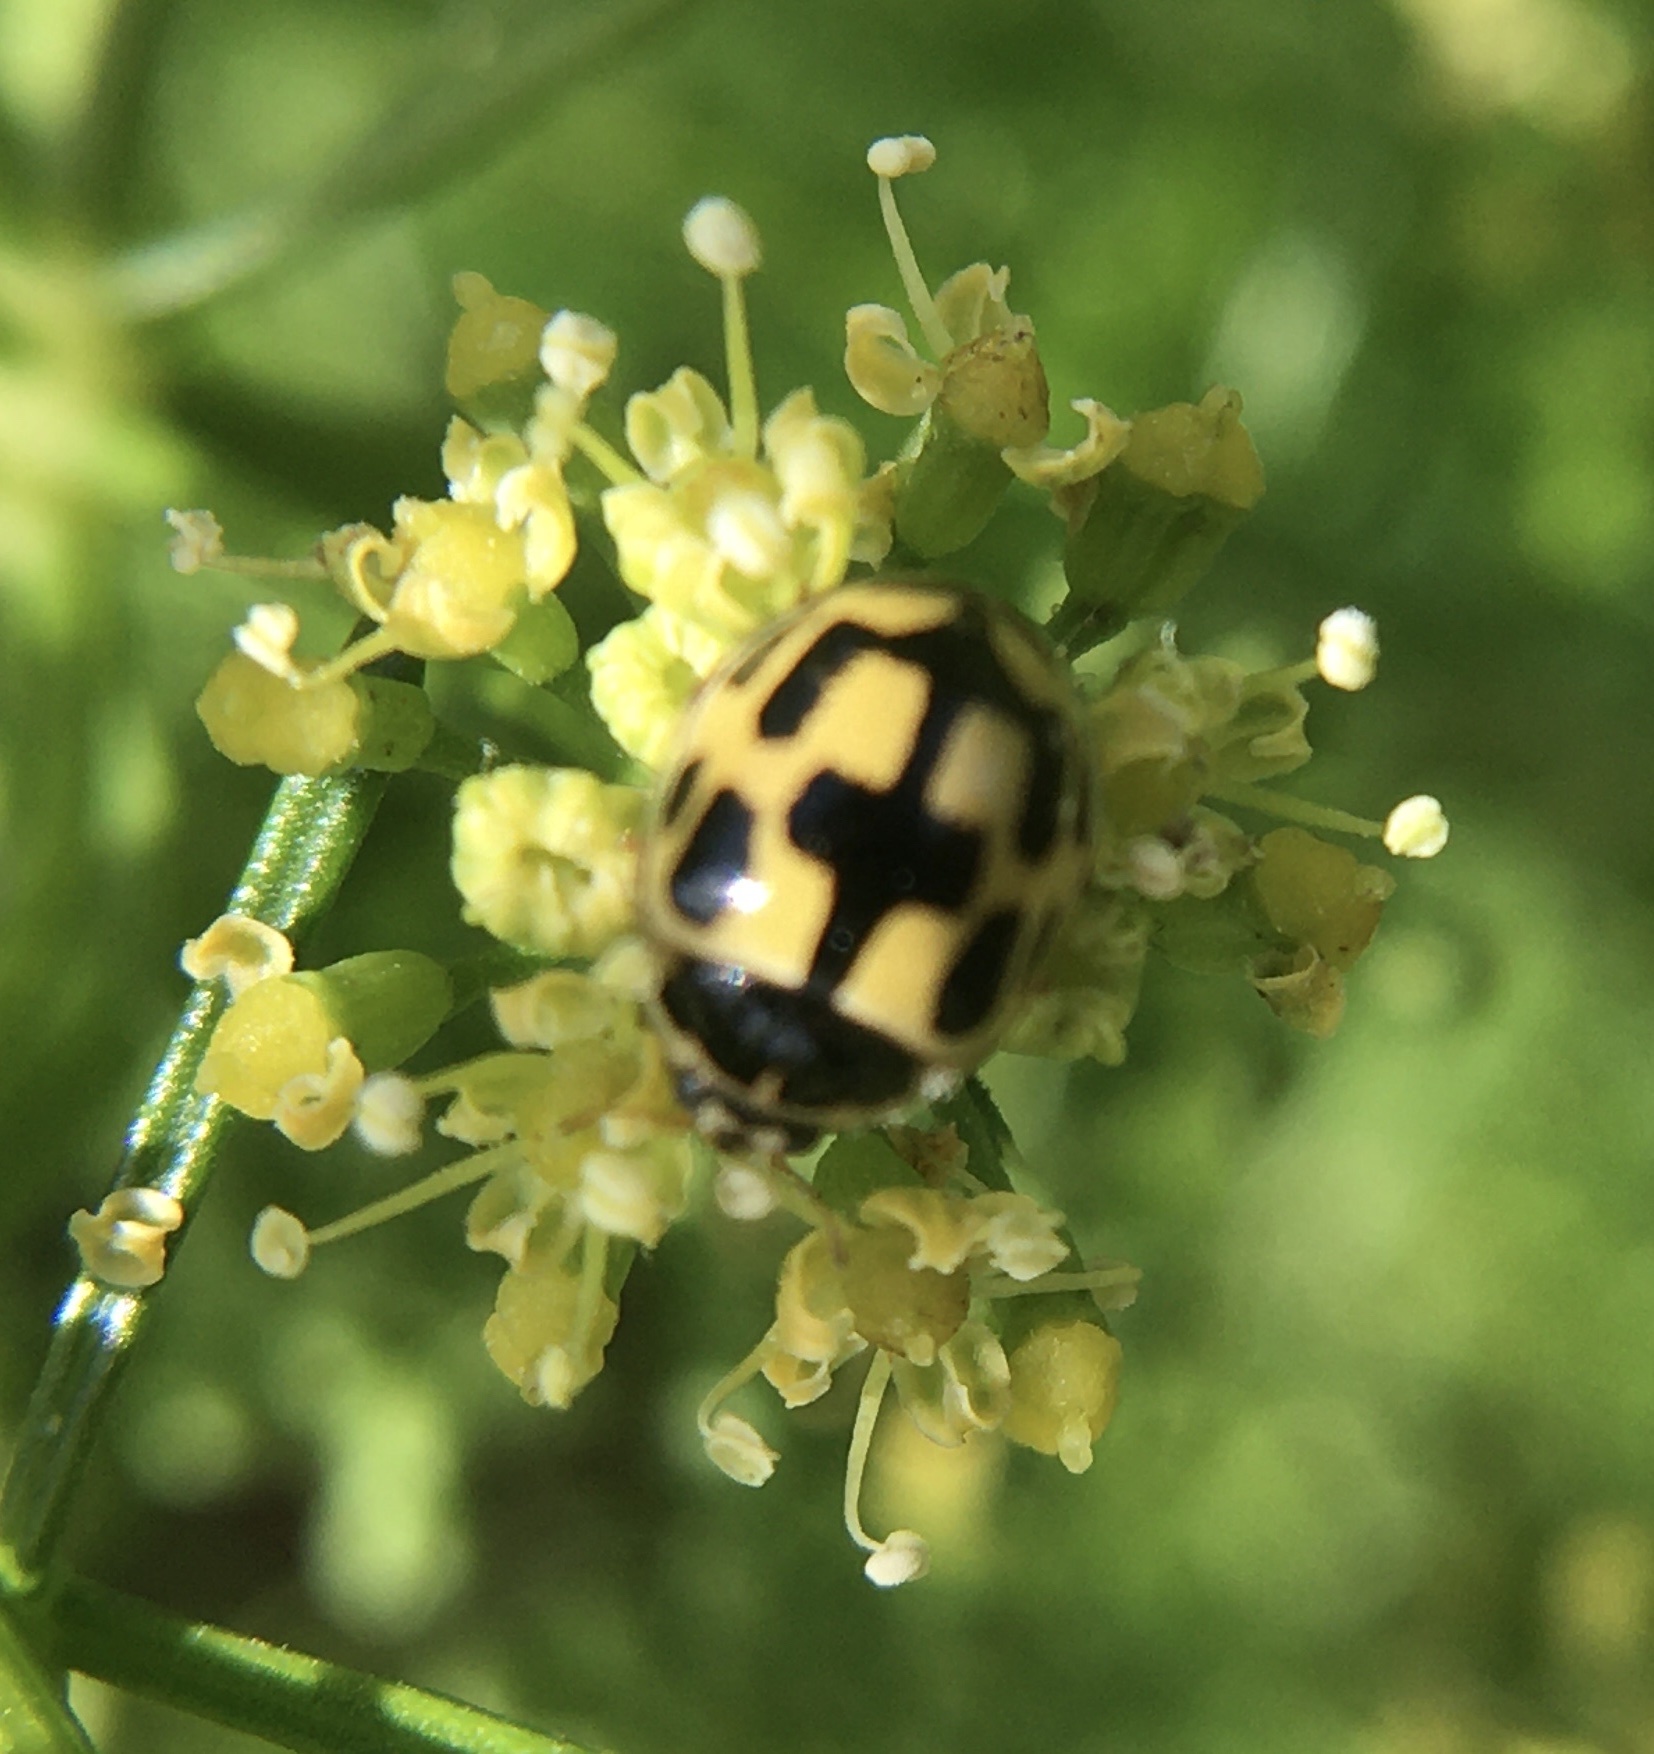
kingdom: Animalia
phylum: Arthropoda
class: Insecta
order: Coleoptera
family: Coccinellidae
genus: Propylaea
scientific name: Propylaea quatuordecimpunctata
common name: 14-spotted ladybird beetle
